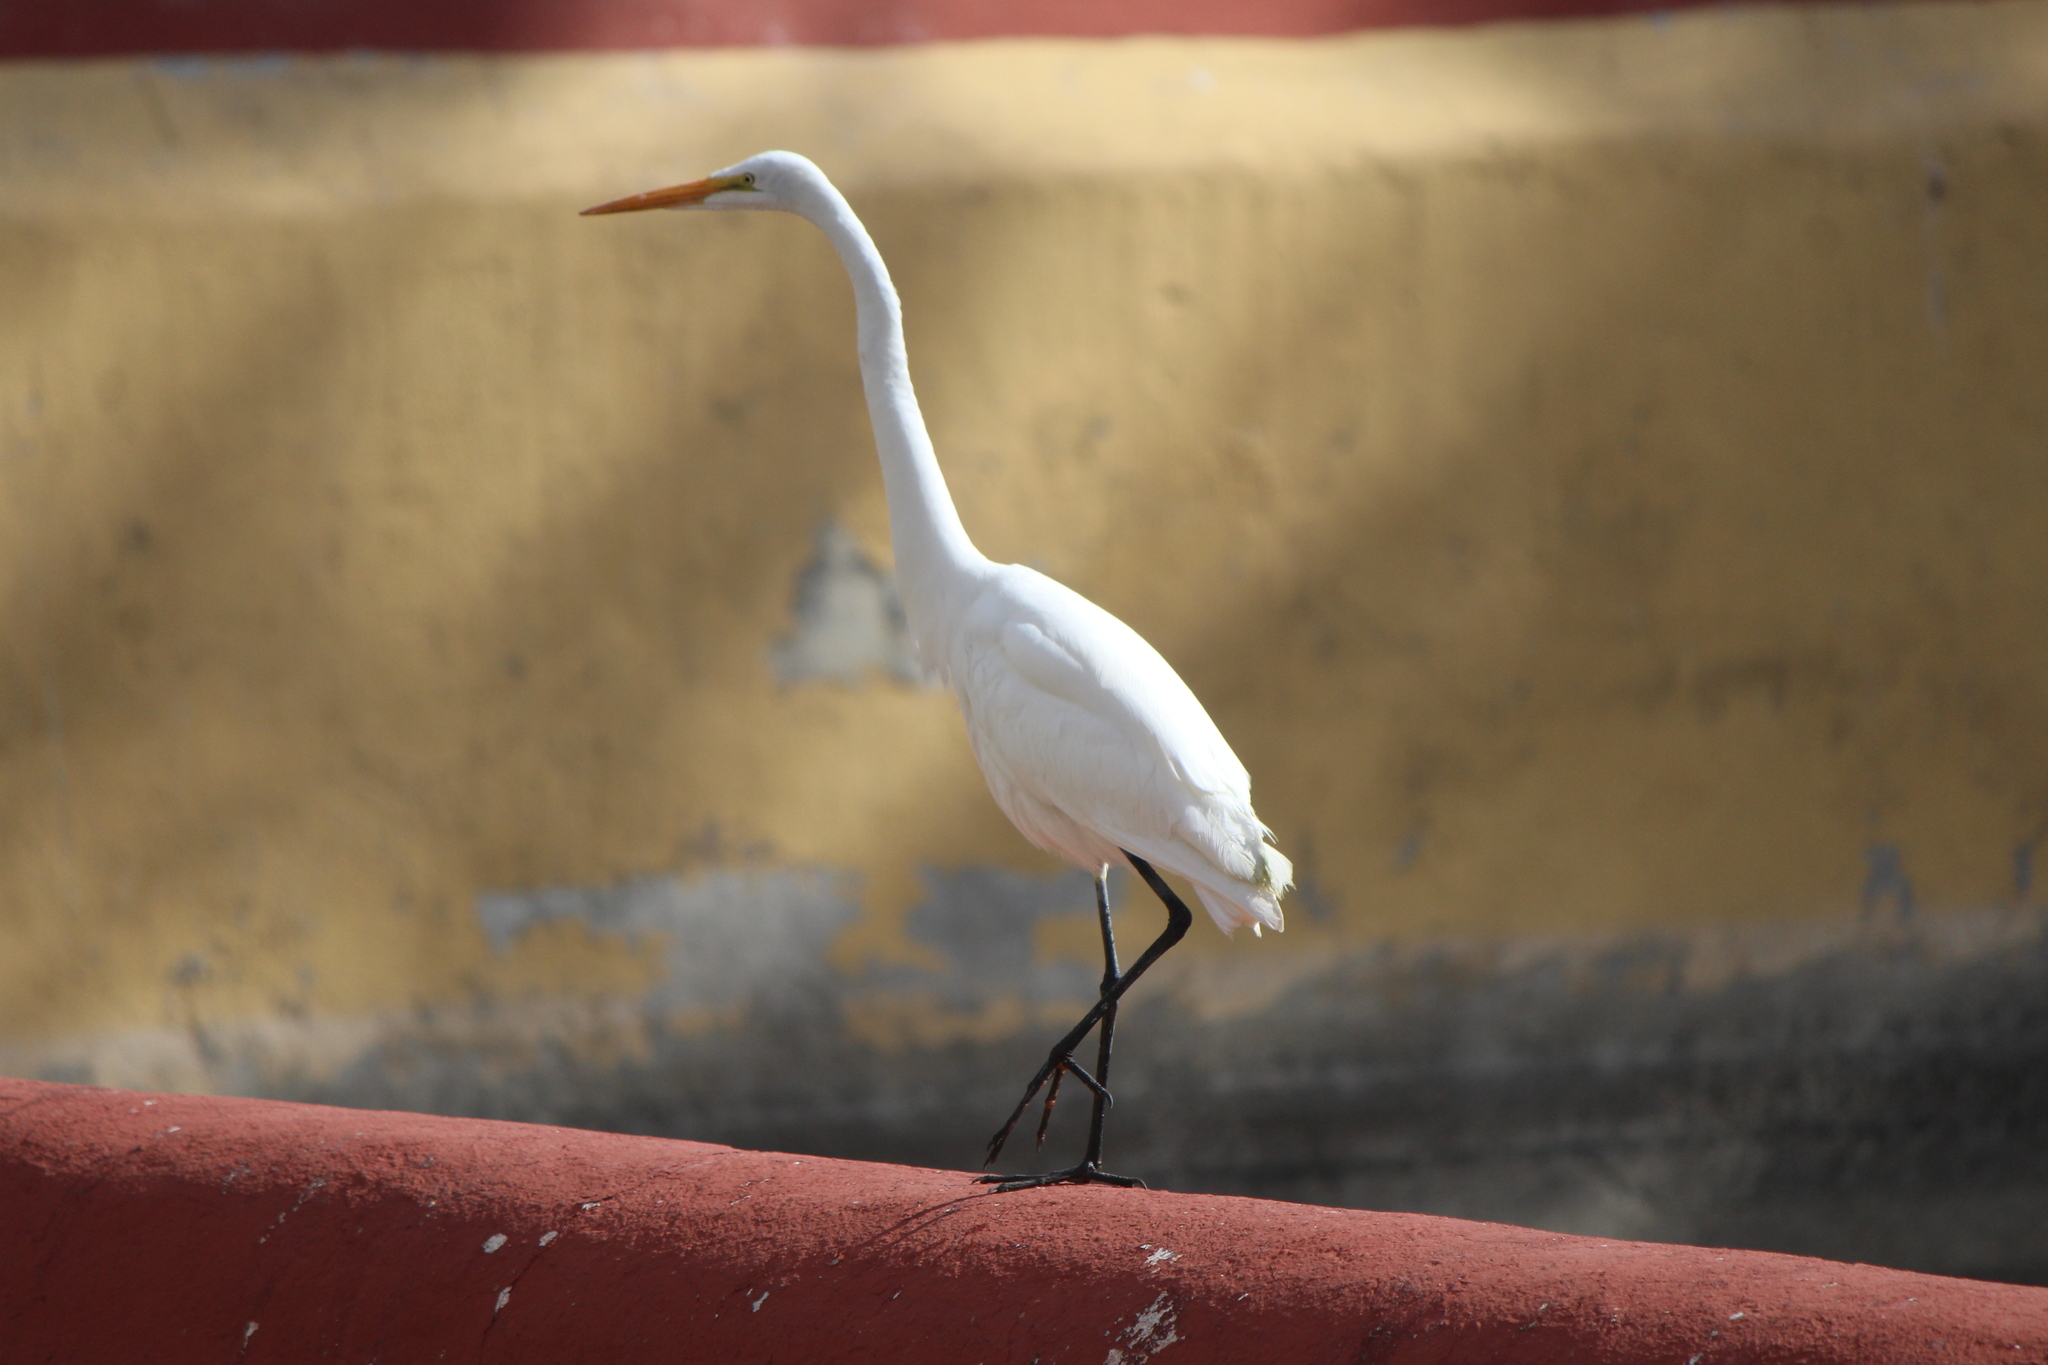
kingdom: Animalia
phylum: Chordata
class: Aves
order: Pelecaniformes
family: Ardeidae
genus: Ardea
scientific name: Ardea alba
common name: Great egret
